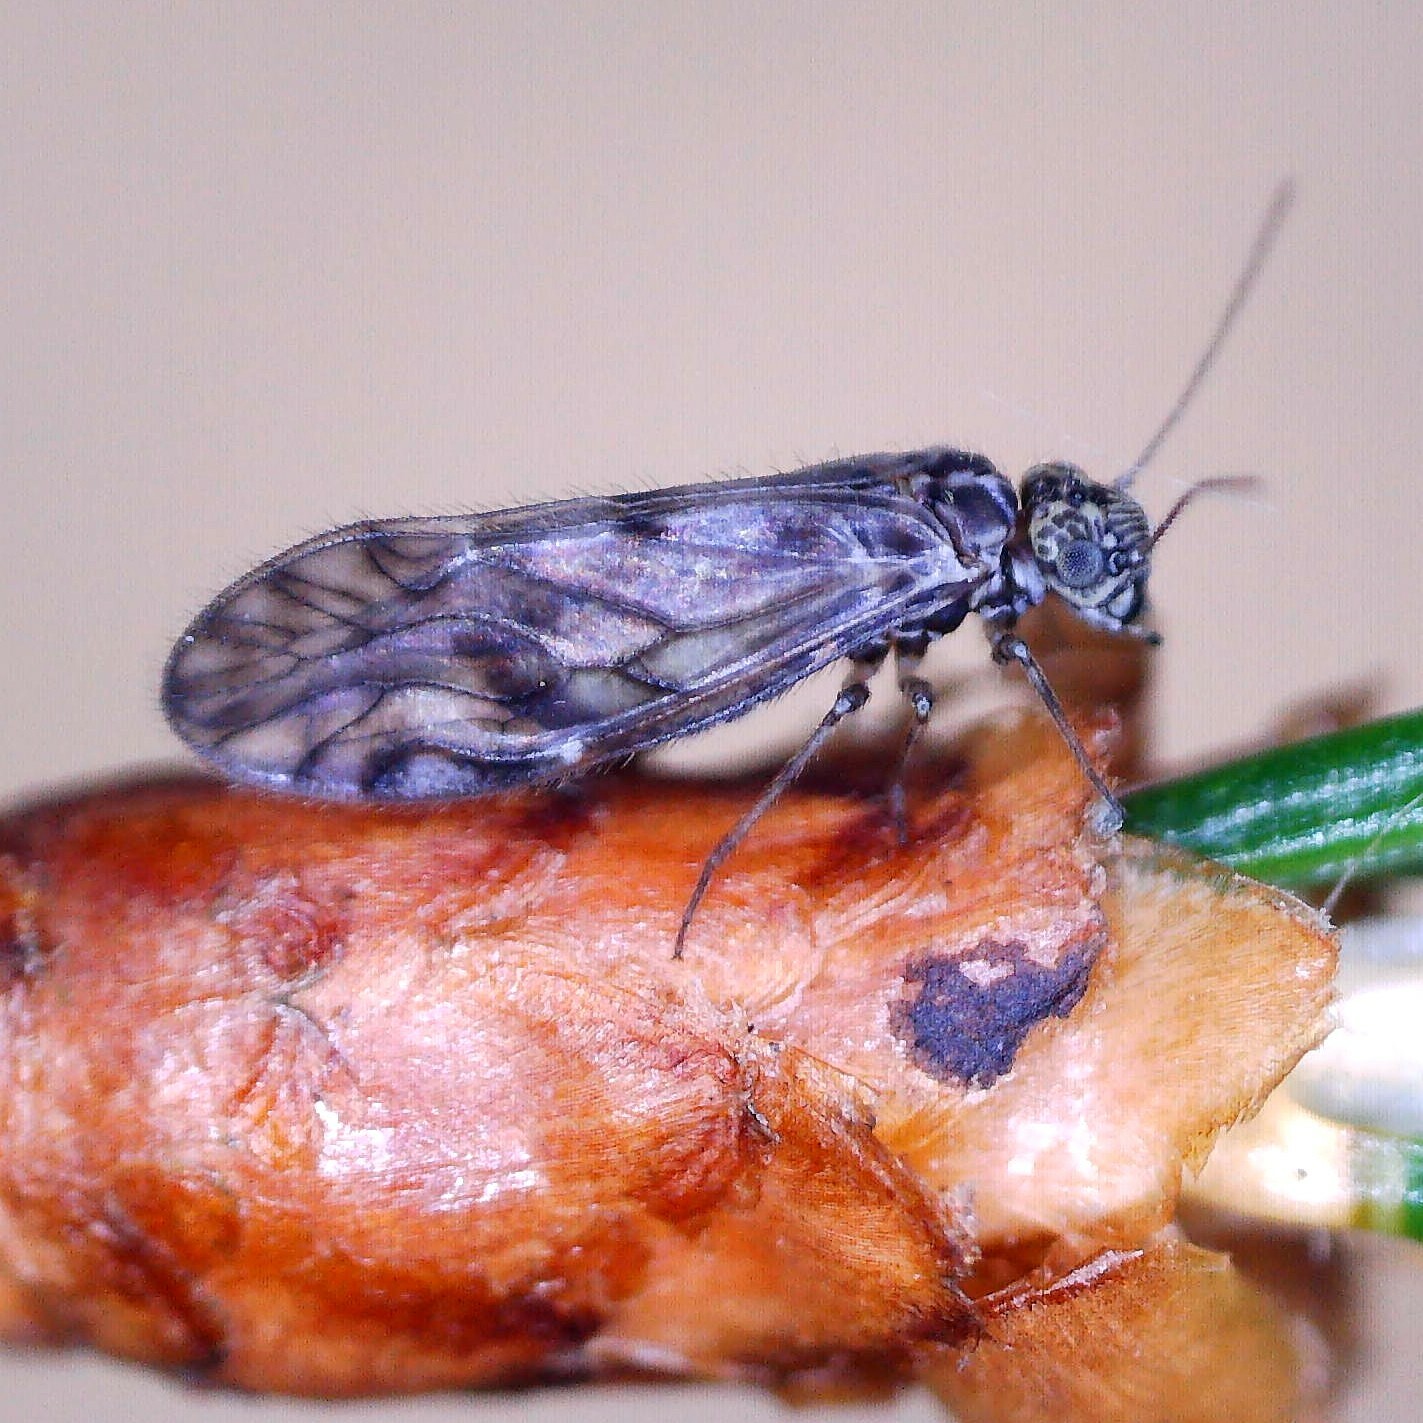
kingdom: Animalia
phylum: Arthropoda
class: Insecta
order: Psocodea
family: Philotarsidae
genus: Philotarsus
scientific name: Philotarsus parviceps
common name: Bark louse
